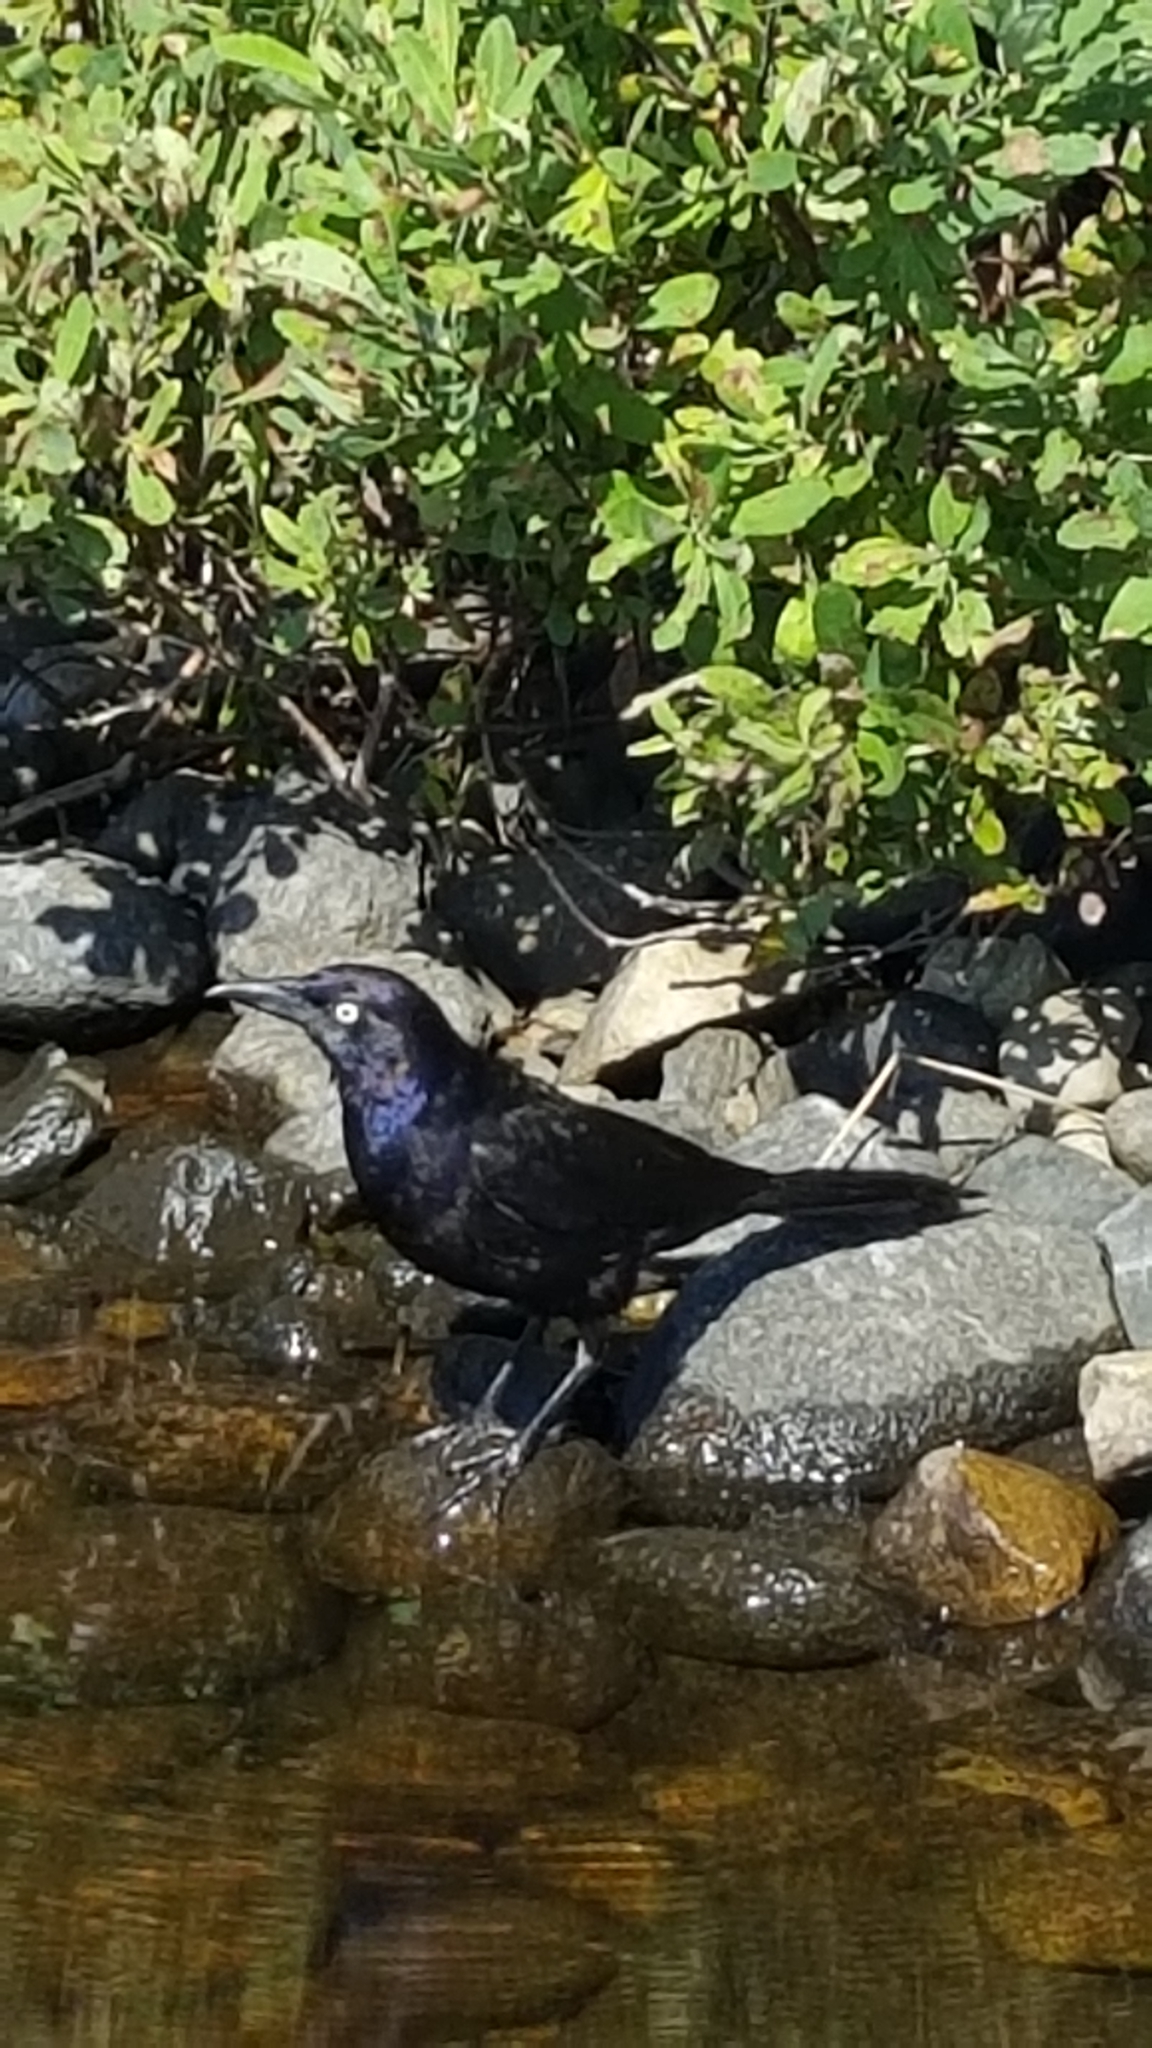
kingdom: Animalia
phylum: Chordata
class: Aves
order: Passeriformes
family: Icteridae
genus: Quiscalus
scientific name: Quiscalus quiscula
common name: Common grackle
